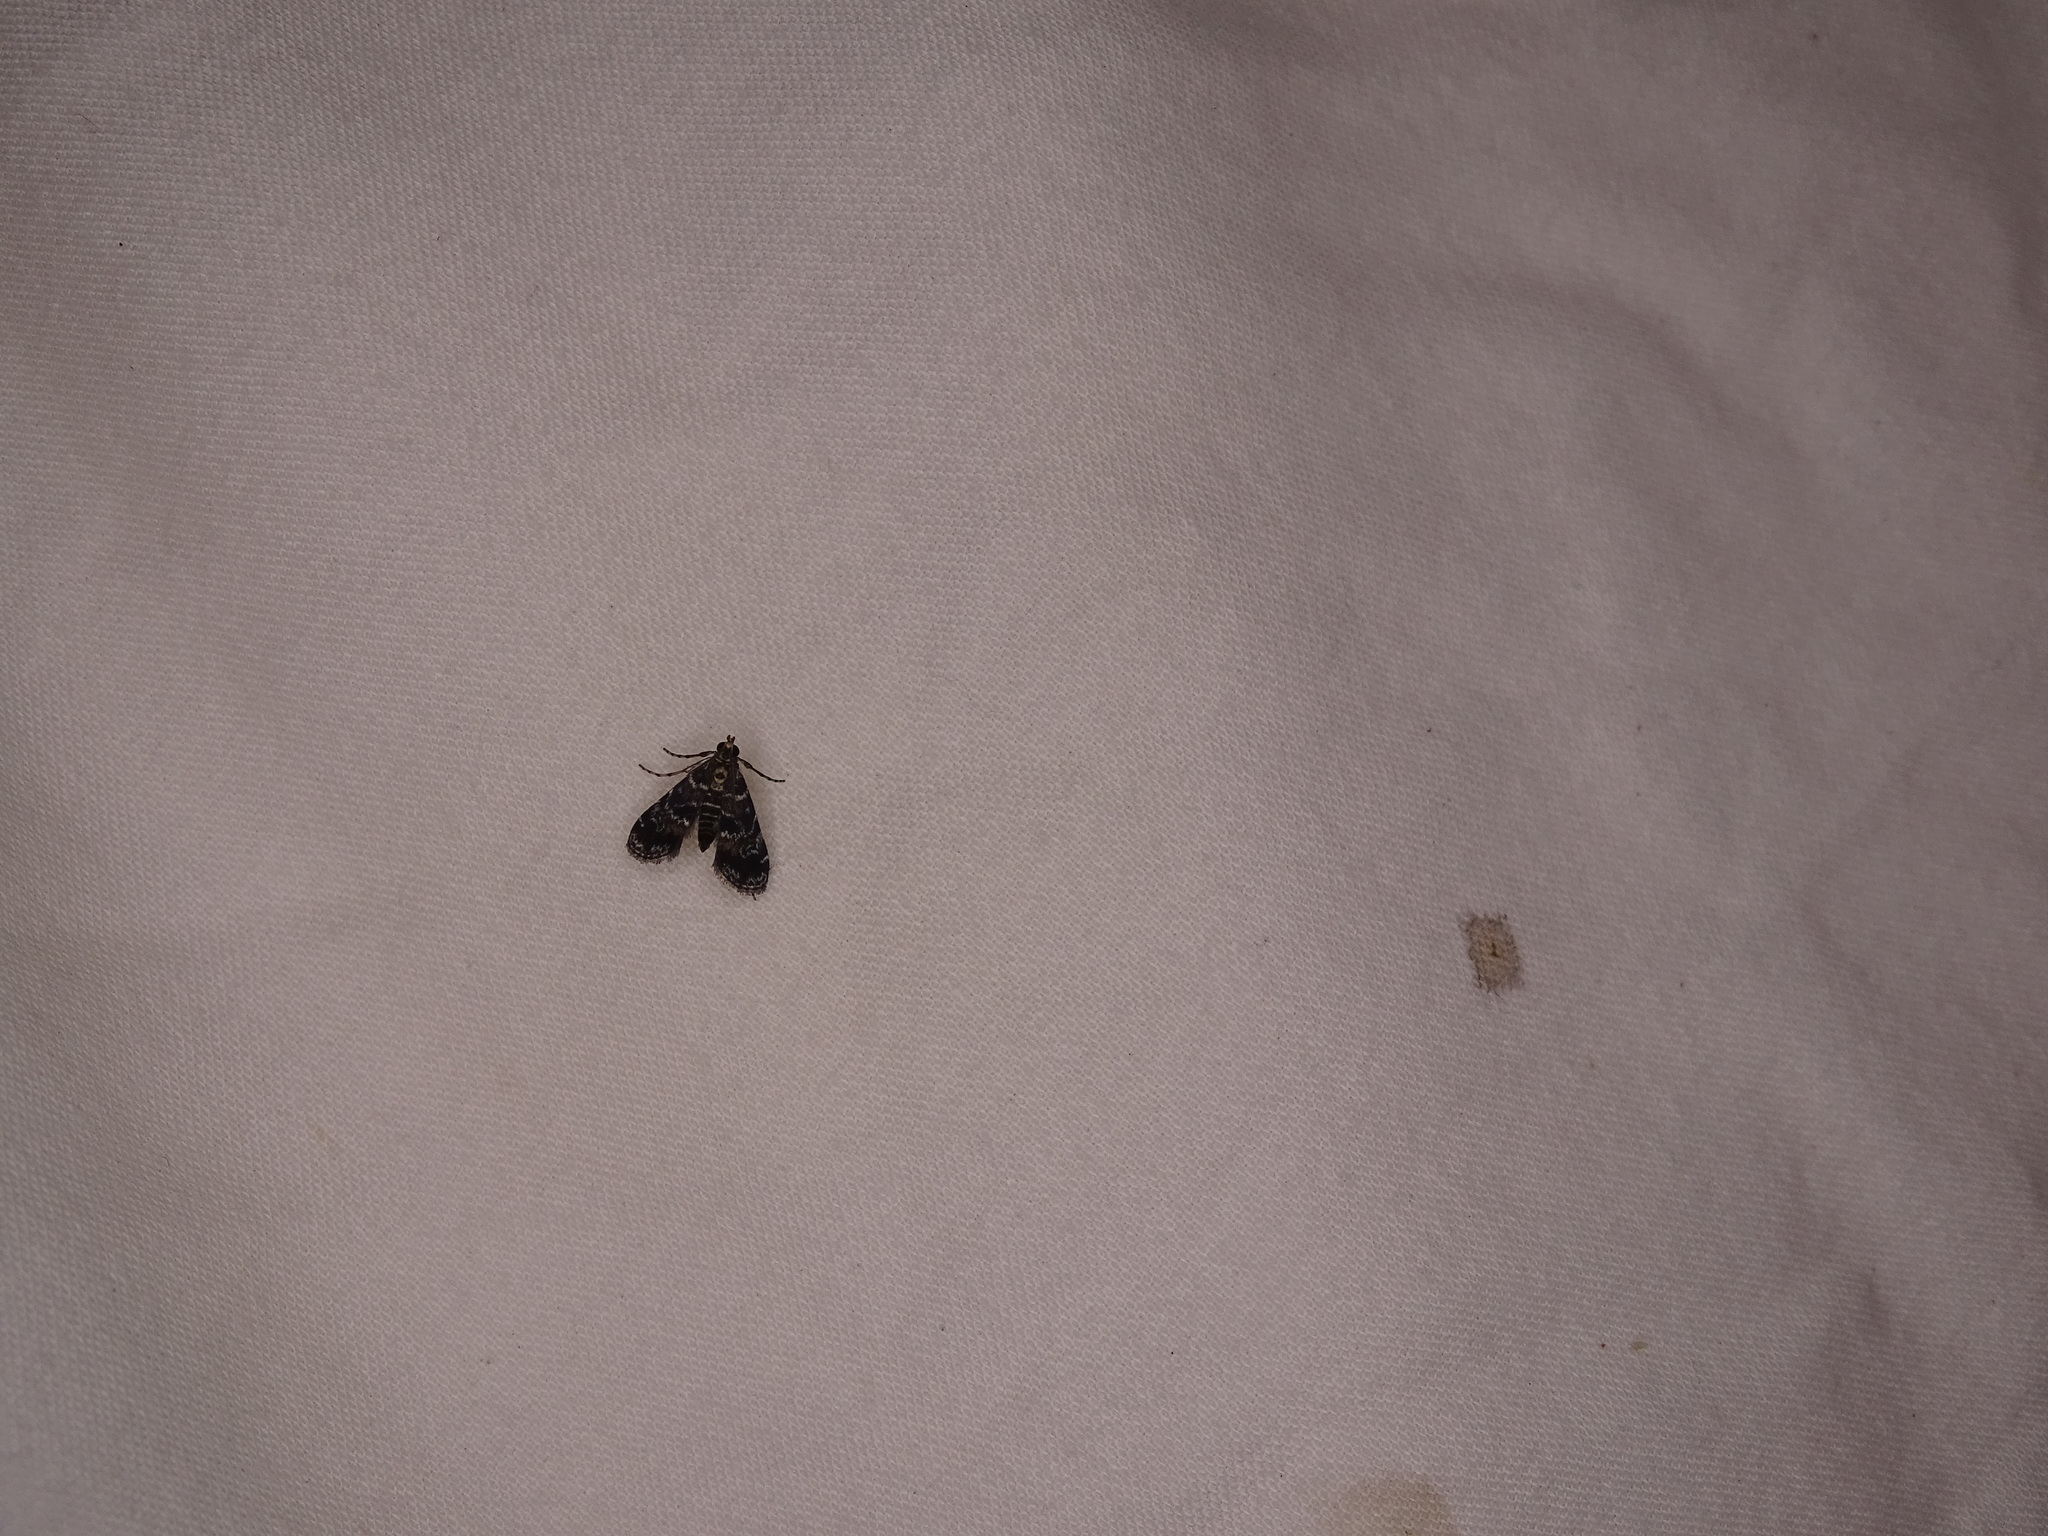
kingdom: Animalia
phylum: Arthropoda
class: Insecta
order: Lepidoptera
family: Crambidae
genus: Elophila
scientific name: Elophila obliteralis
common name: Waterlily leafcutter moth
